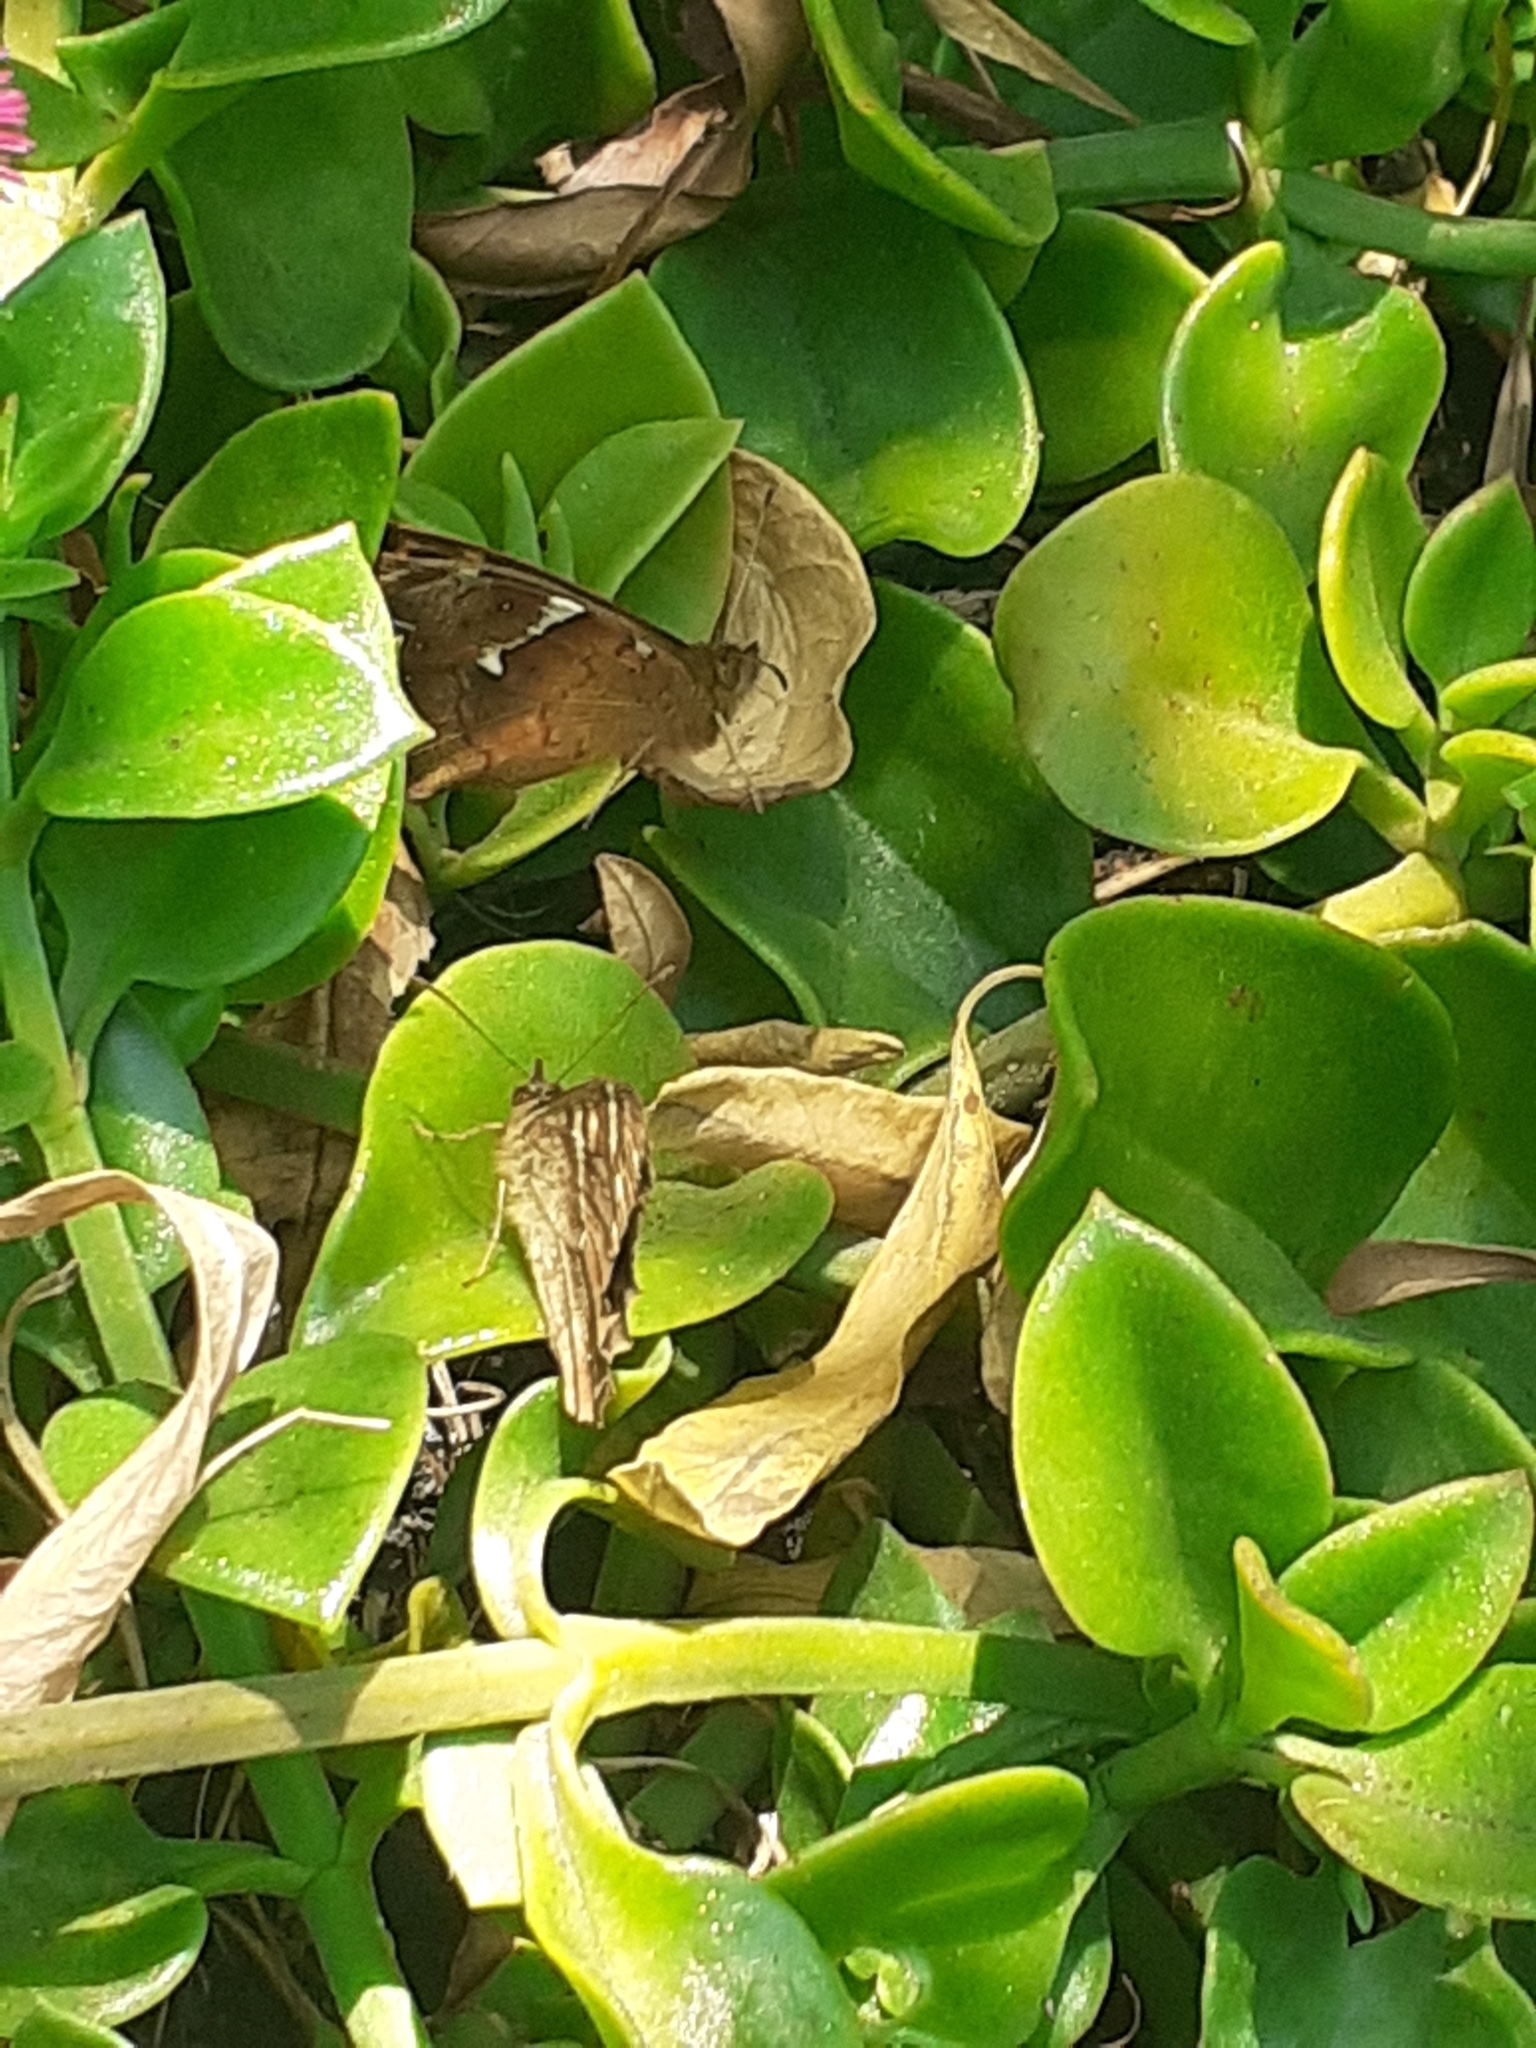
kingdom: Animalia
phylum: Arthropoda
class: Insecta
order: Lepidoptera
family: Nymphalidae
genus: Pararge
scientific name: Pararge aegeria
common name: Speckled wood
